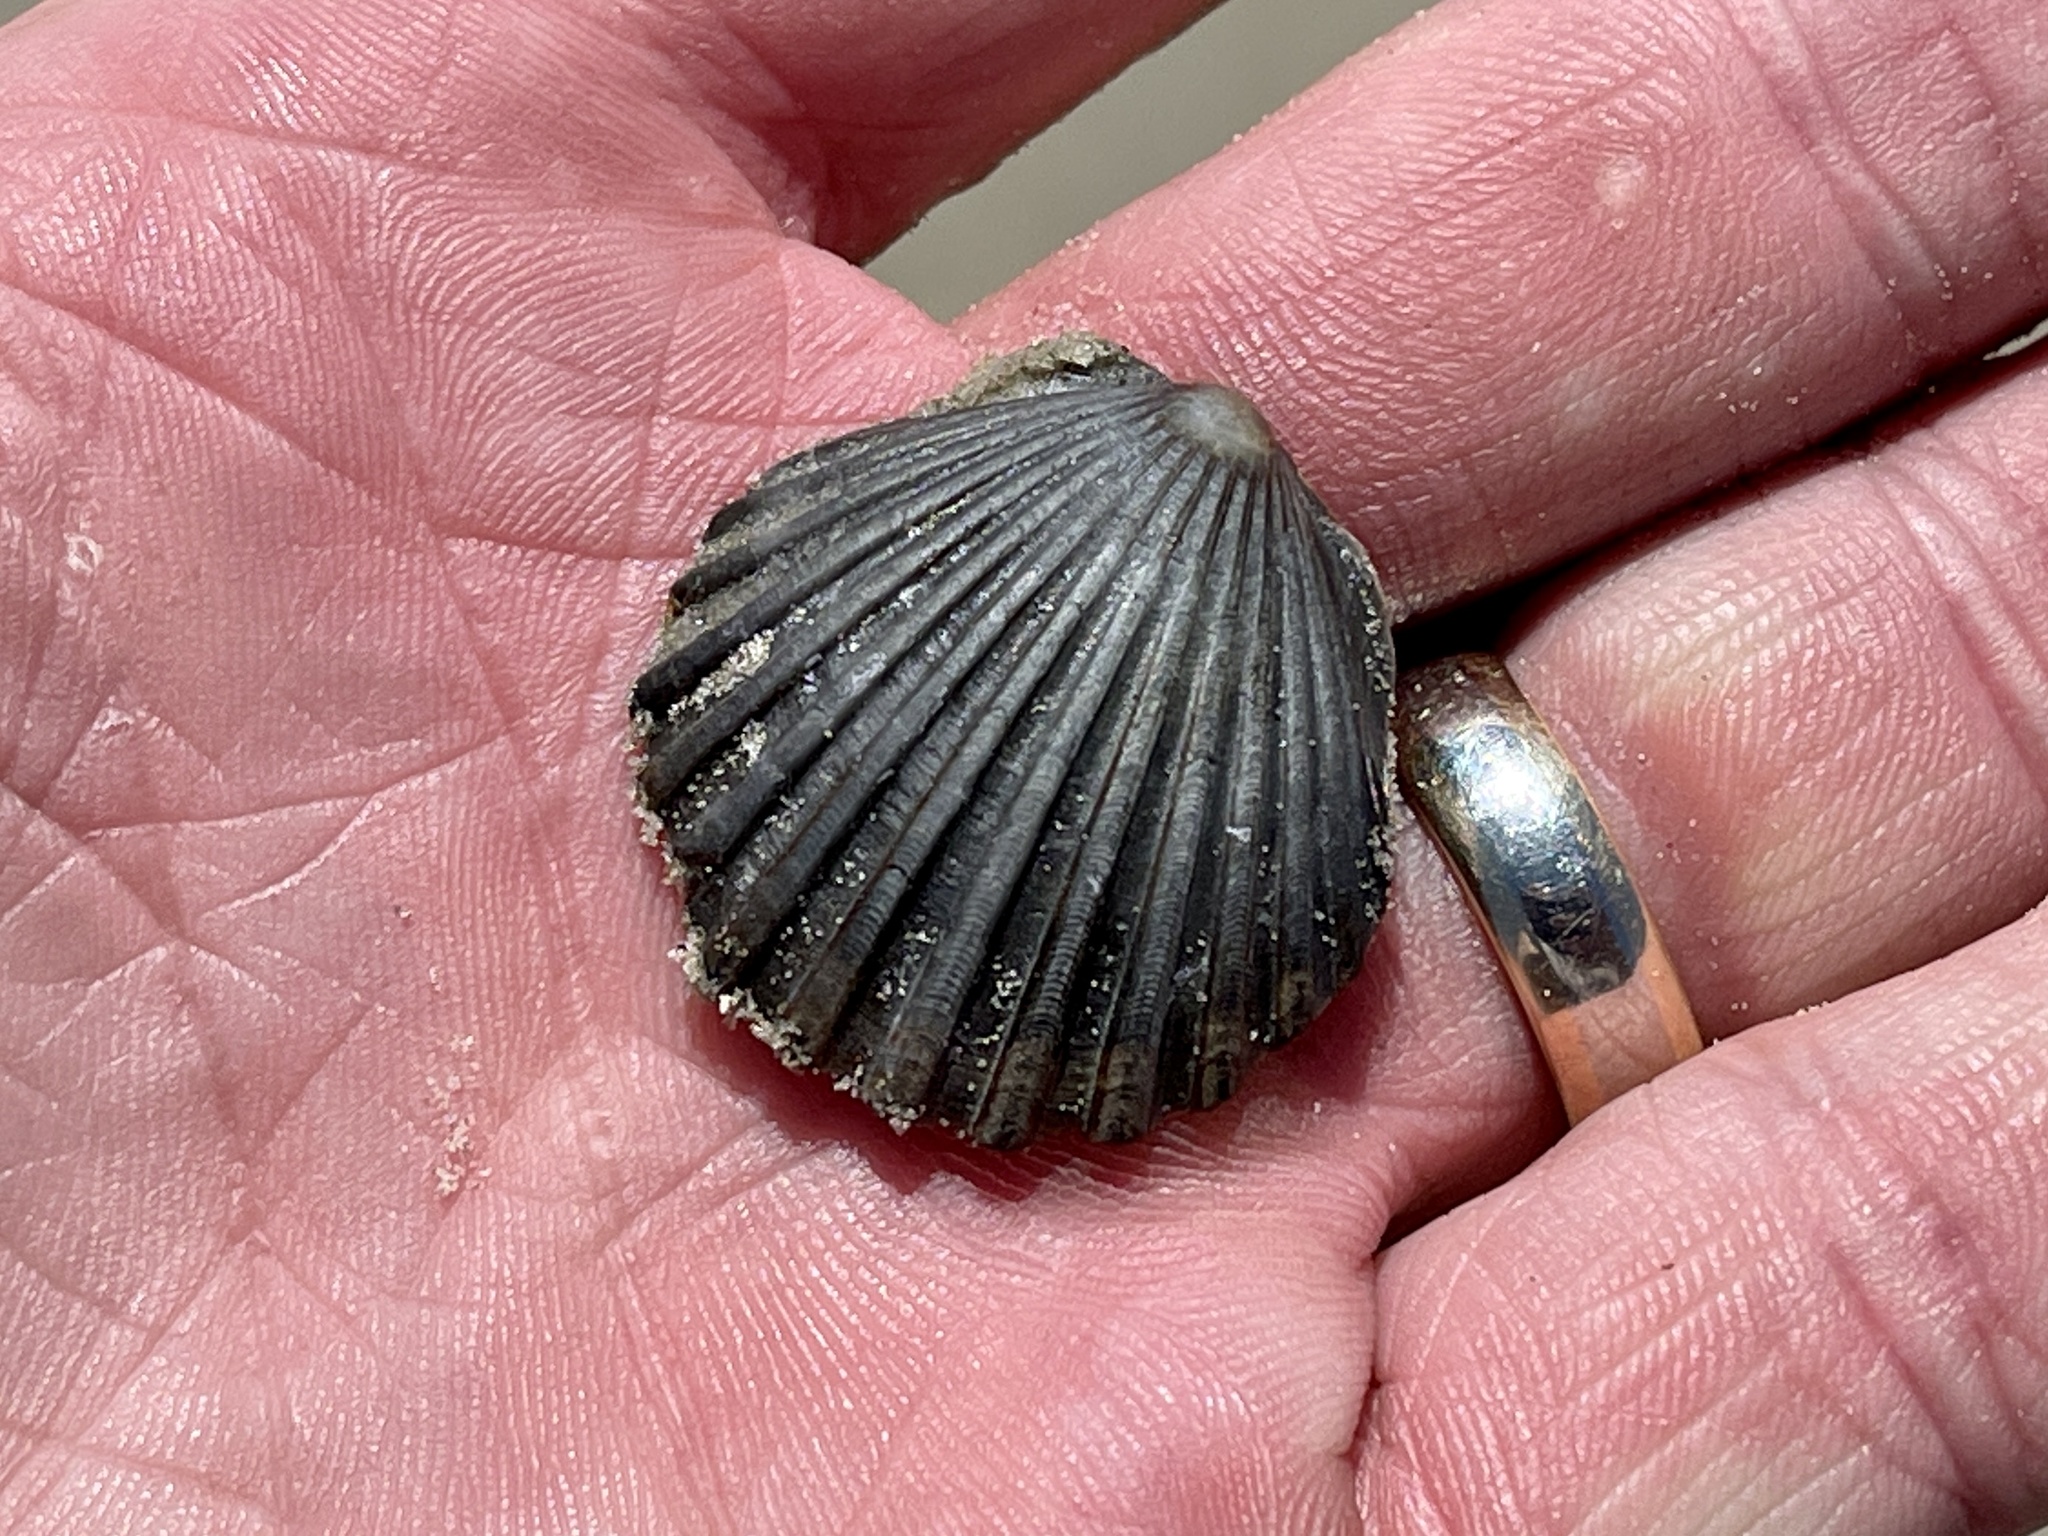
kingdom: Animalia
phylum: Mollusca
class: Bivalvia
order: Pectinida
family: Pectinidae
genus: Argopecten
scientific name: Argopecten irradians
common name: Atlantic bay scallop
